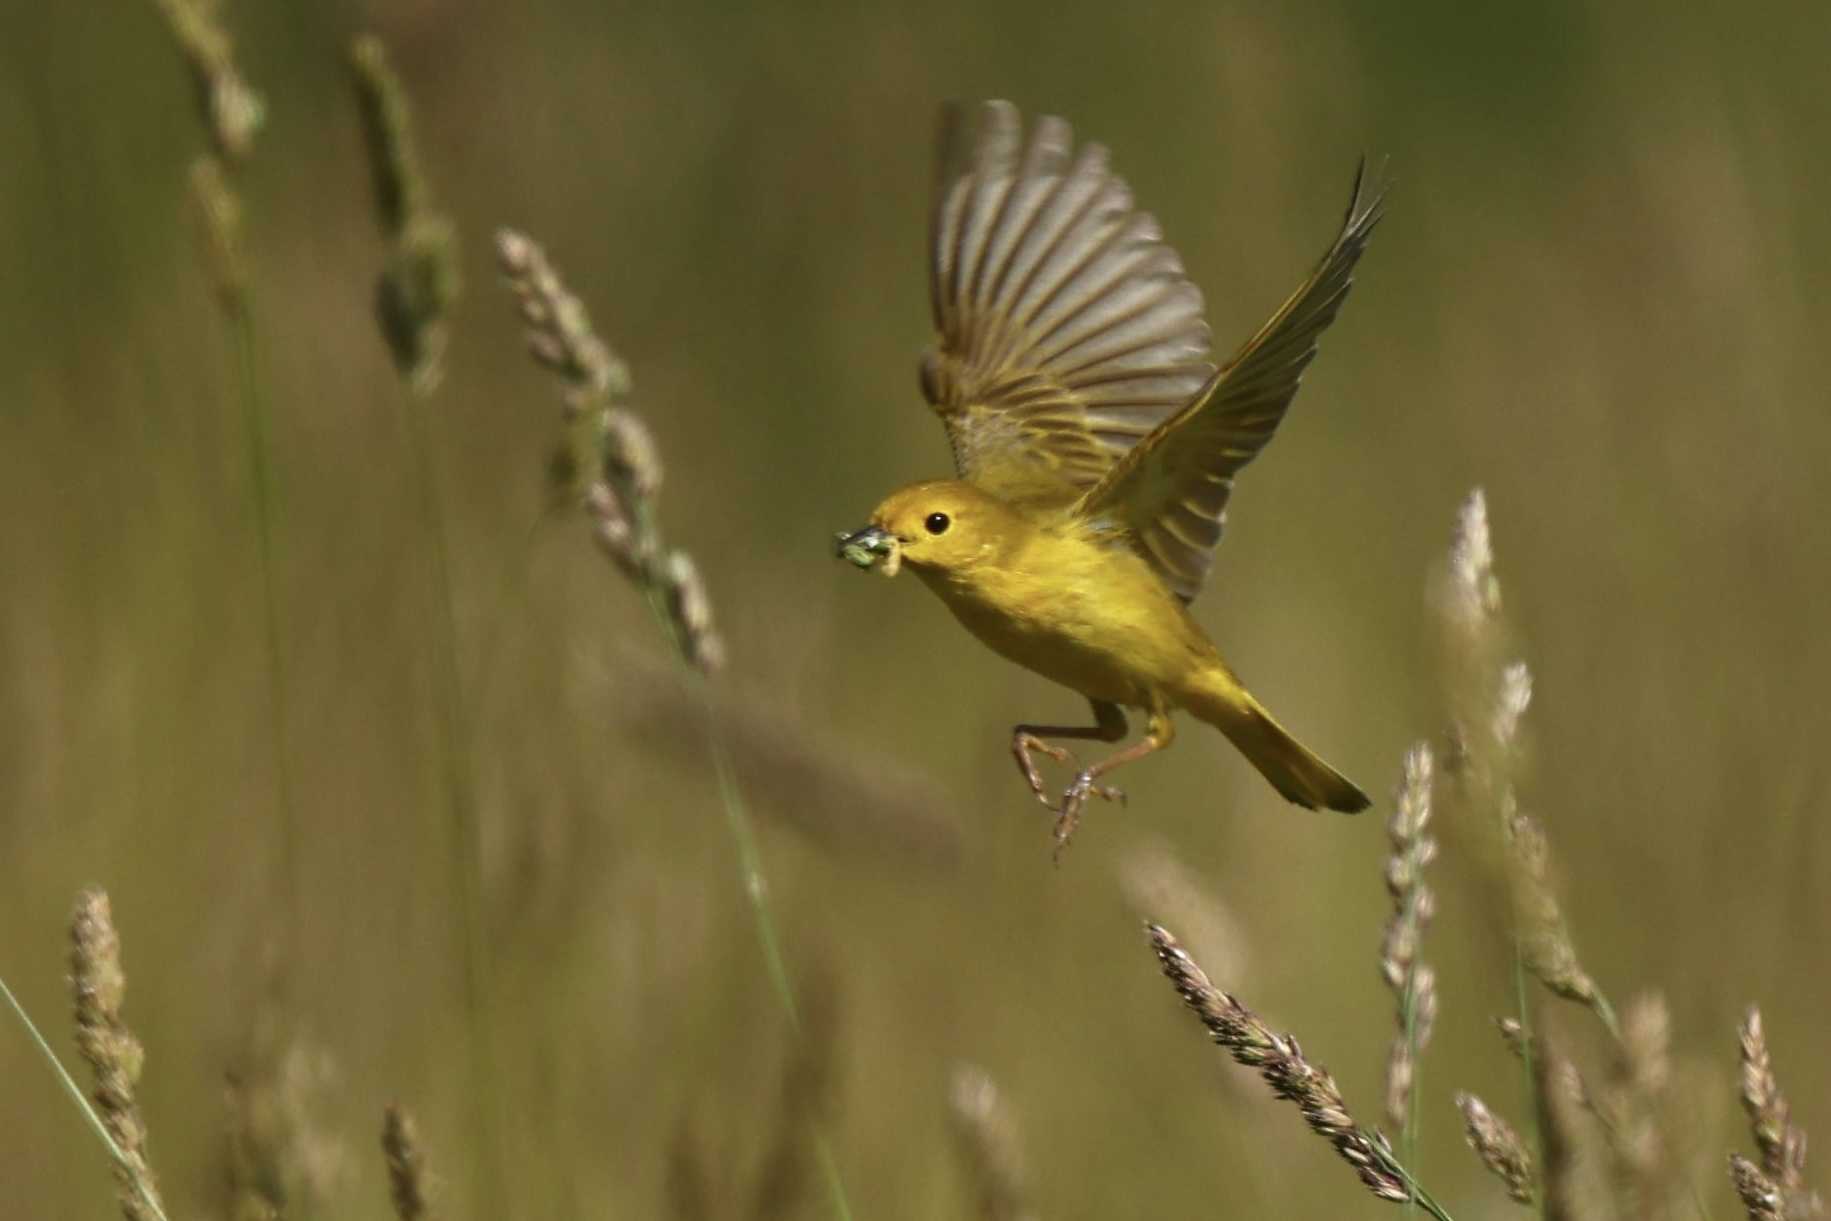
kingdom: Animalia
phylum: Chordata
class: Aves
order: Passeriformes
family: Parulidae
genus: Setophaga
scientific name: Setophaga petechia
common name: Yellow warbler
